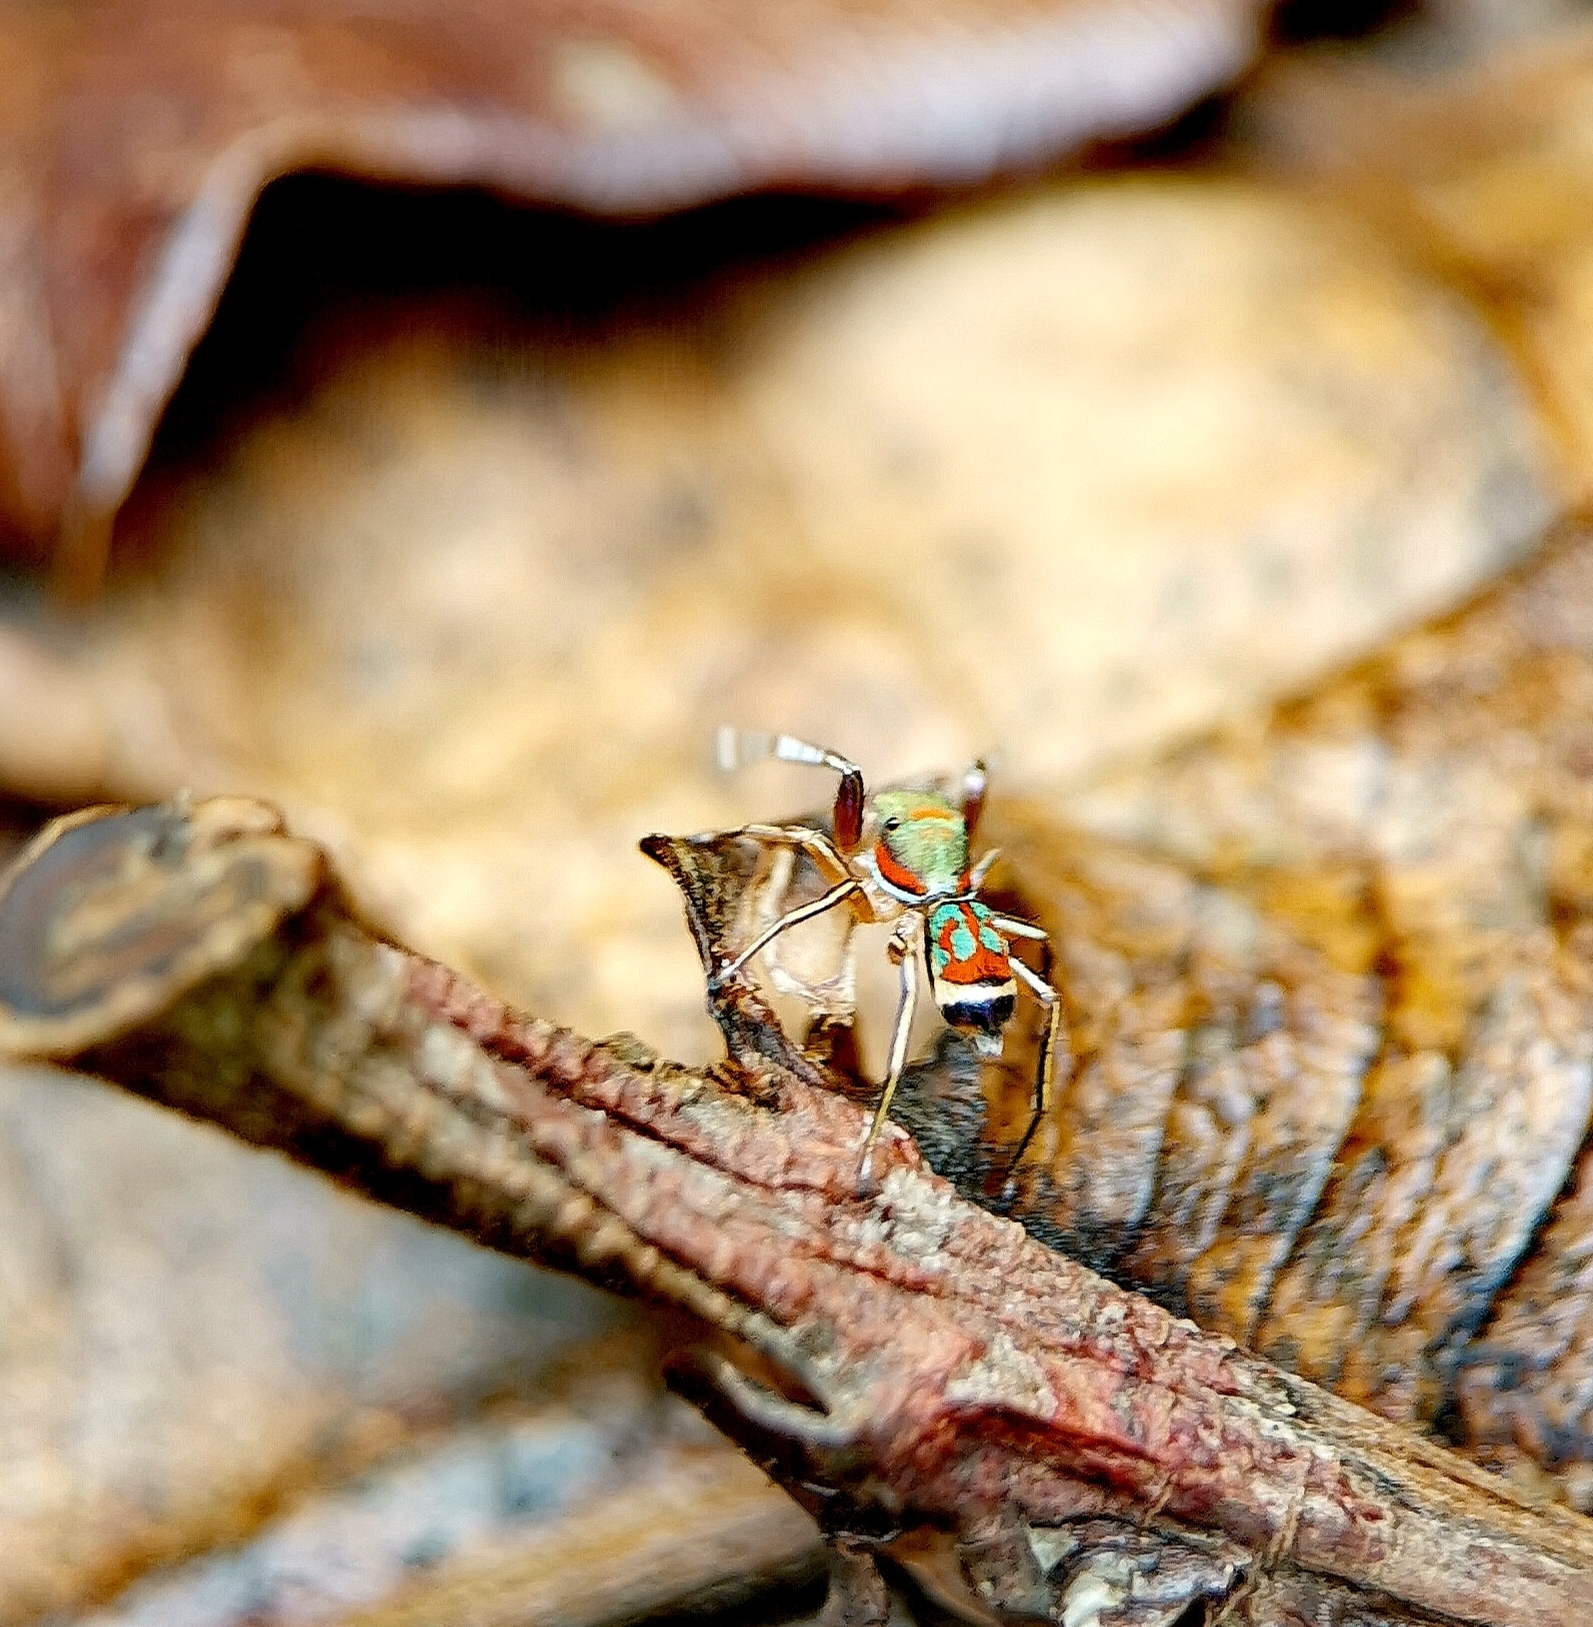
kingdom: Animalia
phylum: Arthropoda
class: Arachnida
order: Araneae
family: Salticidae
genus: Siler
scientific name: Siler semiglaucus
